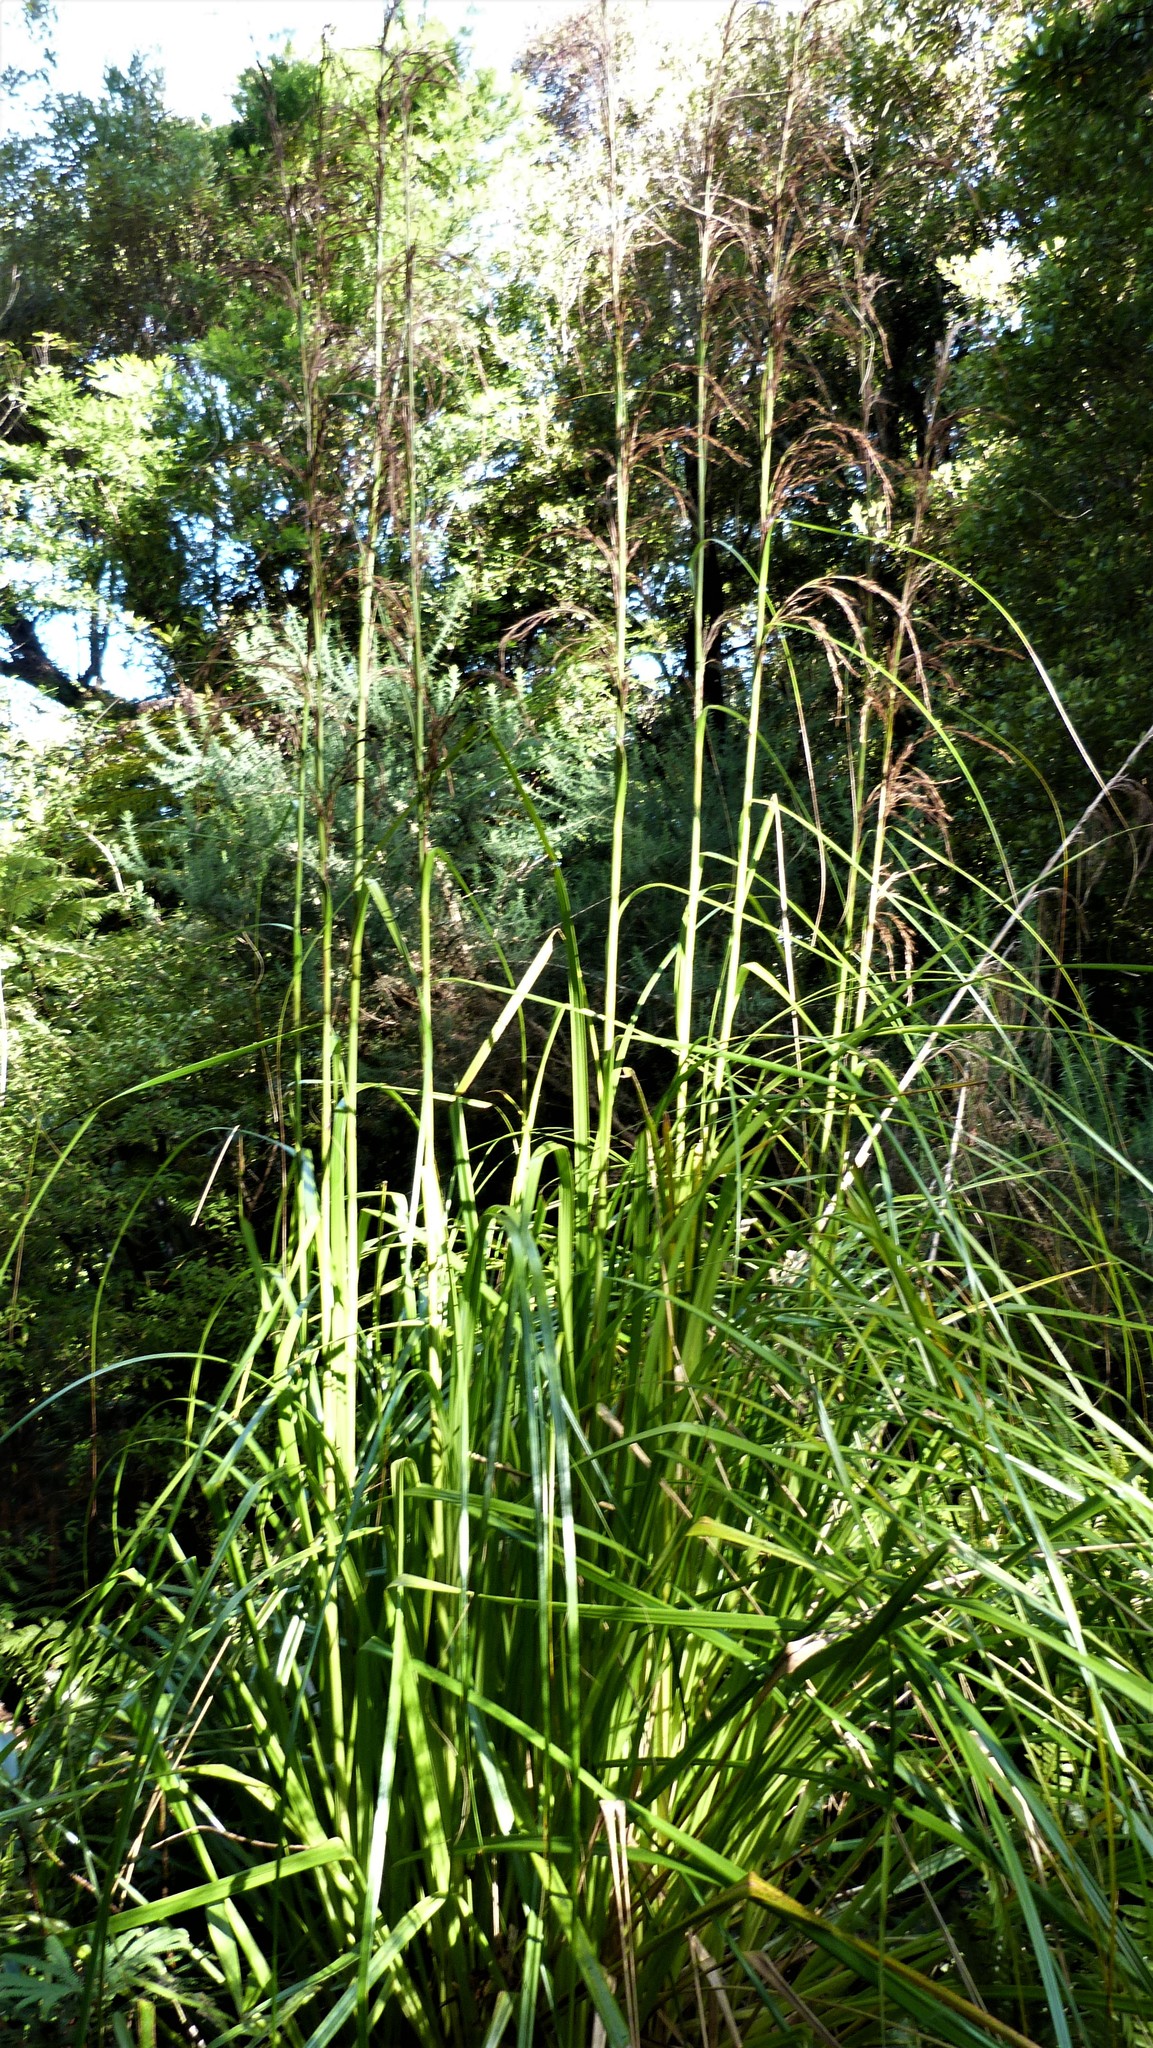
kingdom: Plantae
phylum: Tracheophyta
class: Liliopsida
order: Poales
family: Cyperaceae
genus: Gahnia
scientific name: Gahnia xanthocarpa
